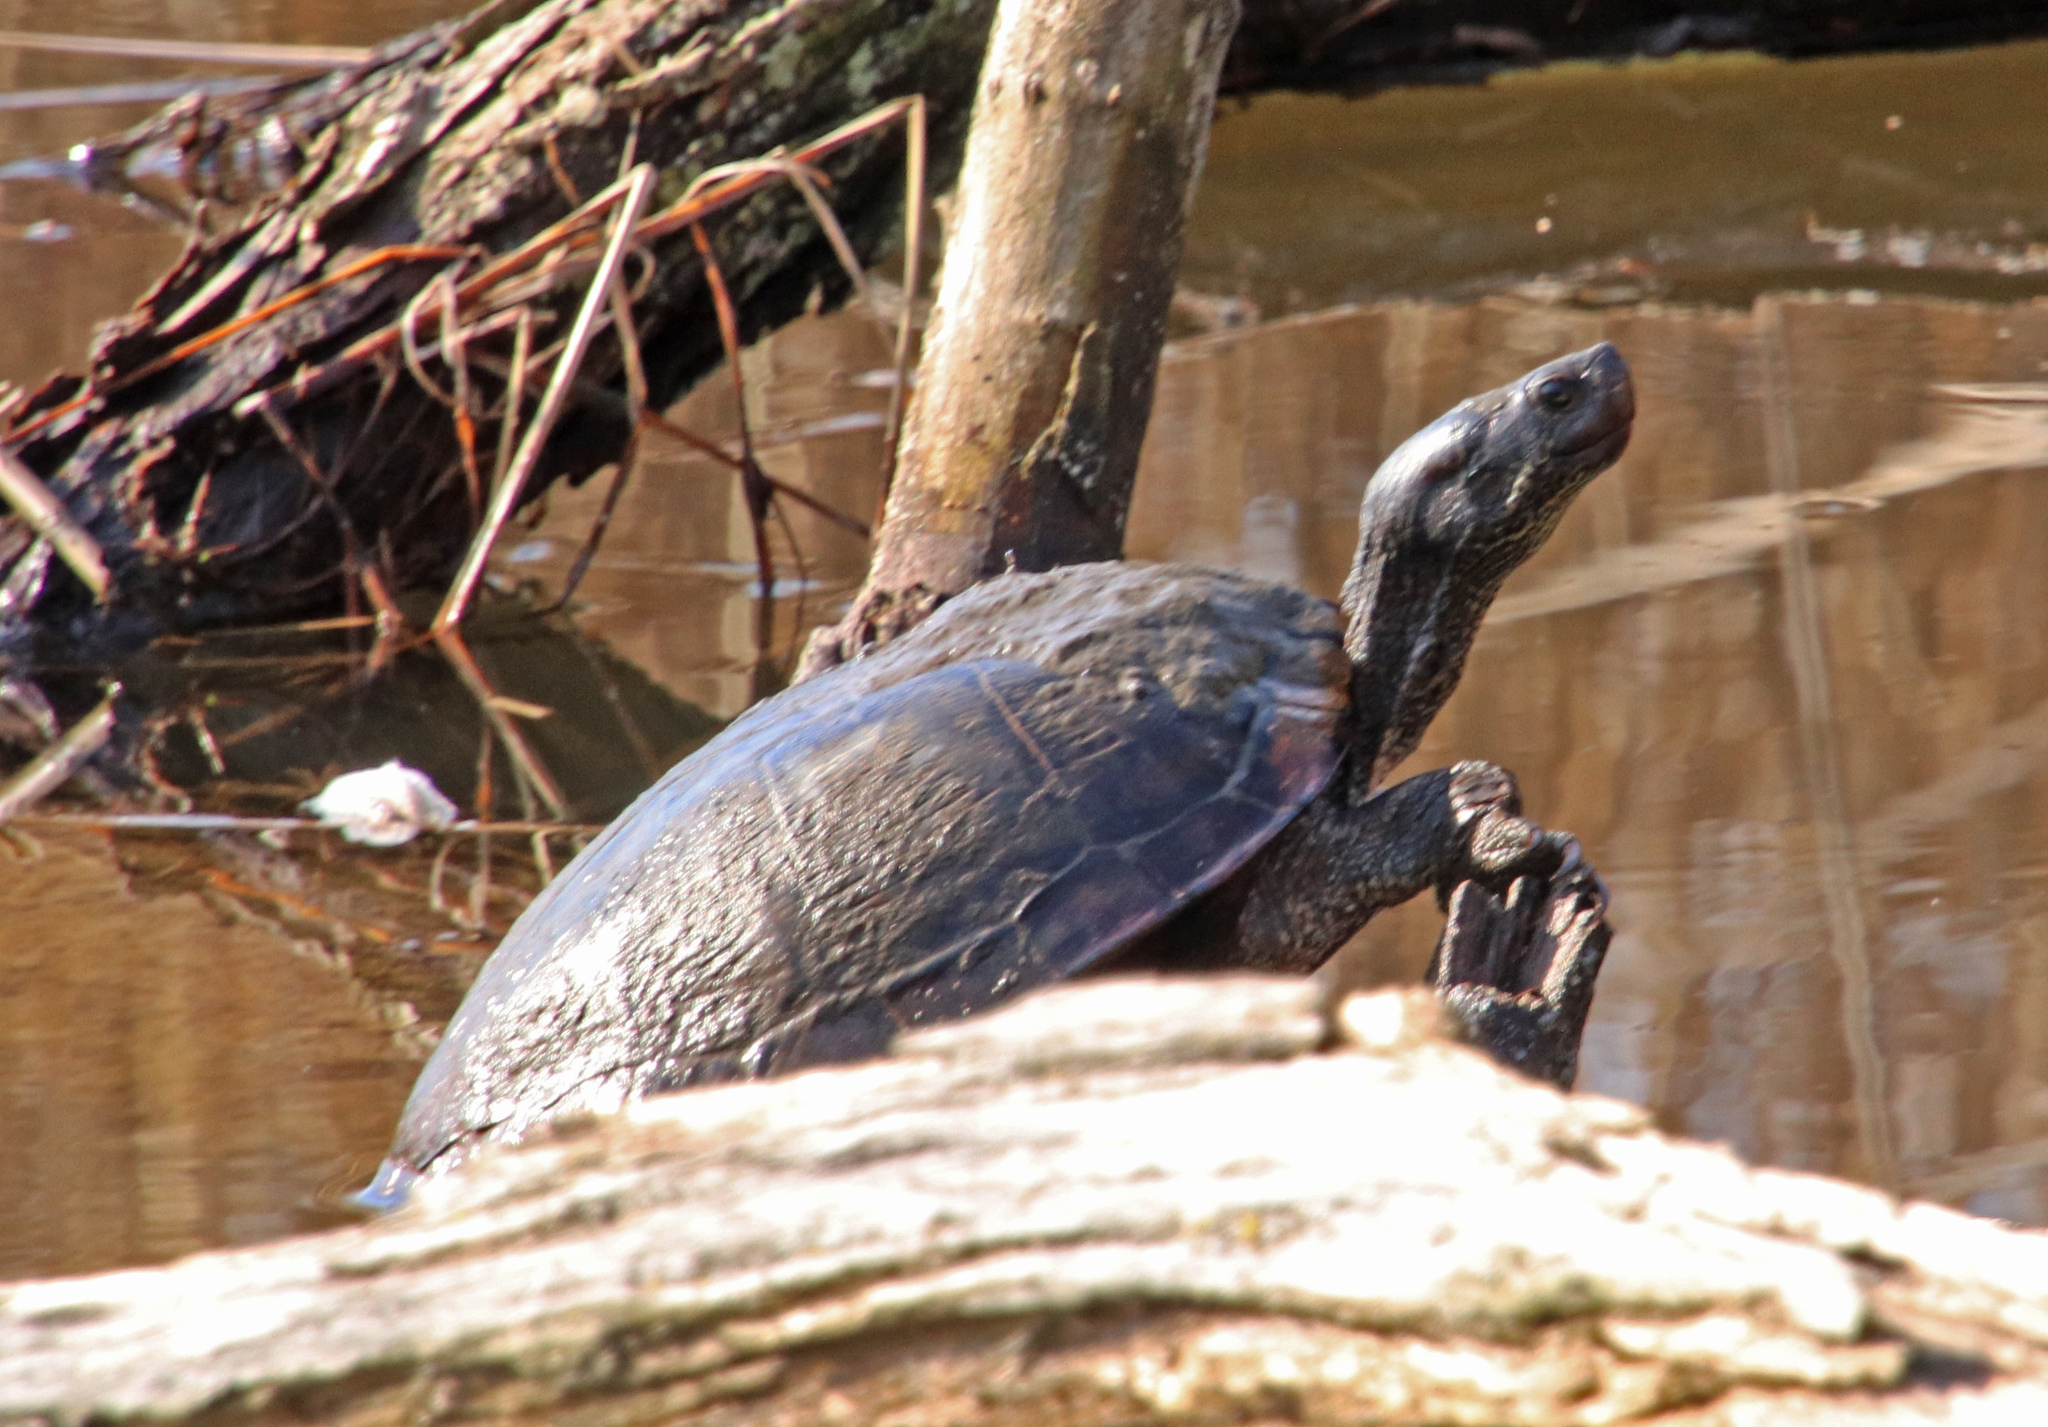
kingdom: Animalia
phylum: Chordata
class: Testudines
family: Emydidae
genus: Trachemys
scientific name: Trachemys scripta
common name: Slider
